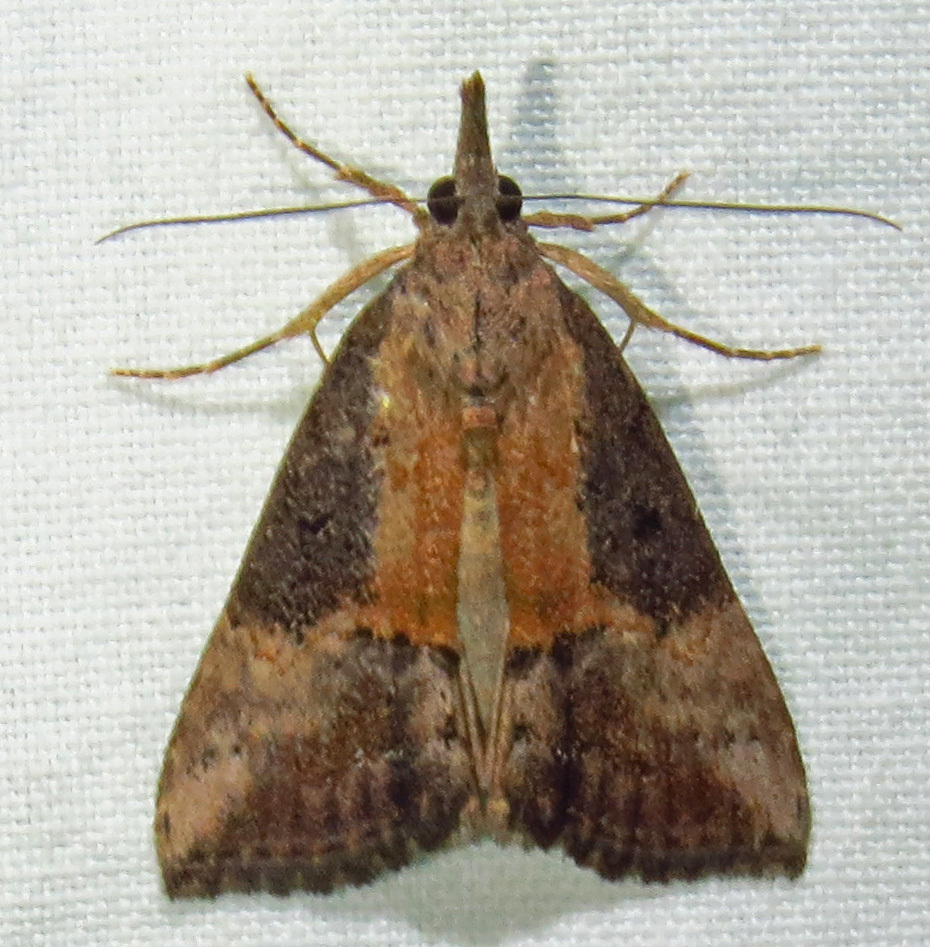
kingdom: Animalia
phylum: Arthropoda
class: Insecta
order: Lepidoptera
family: Erebidae
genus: Hypena
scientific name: Hypena scabra
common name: Green cloverworm
